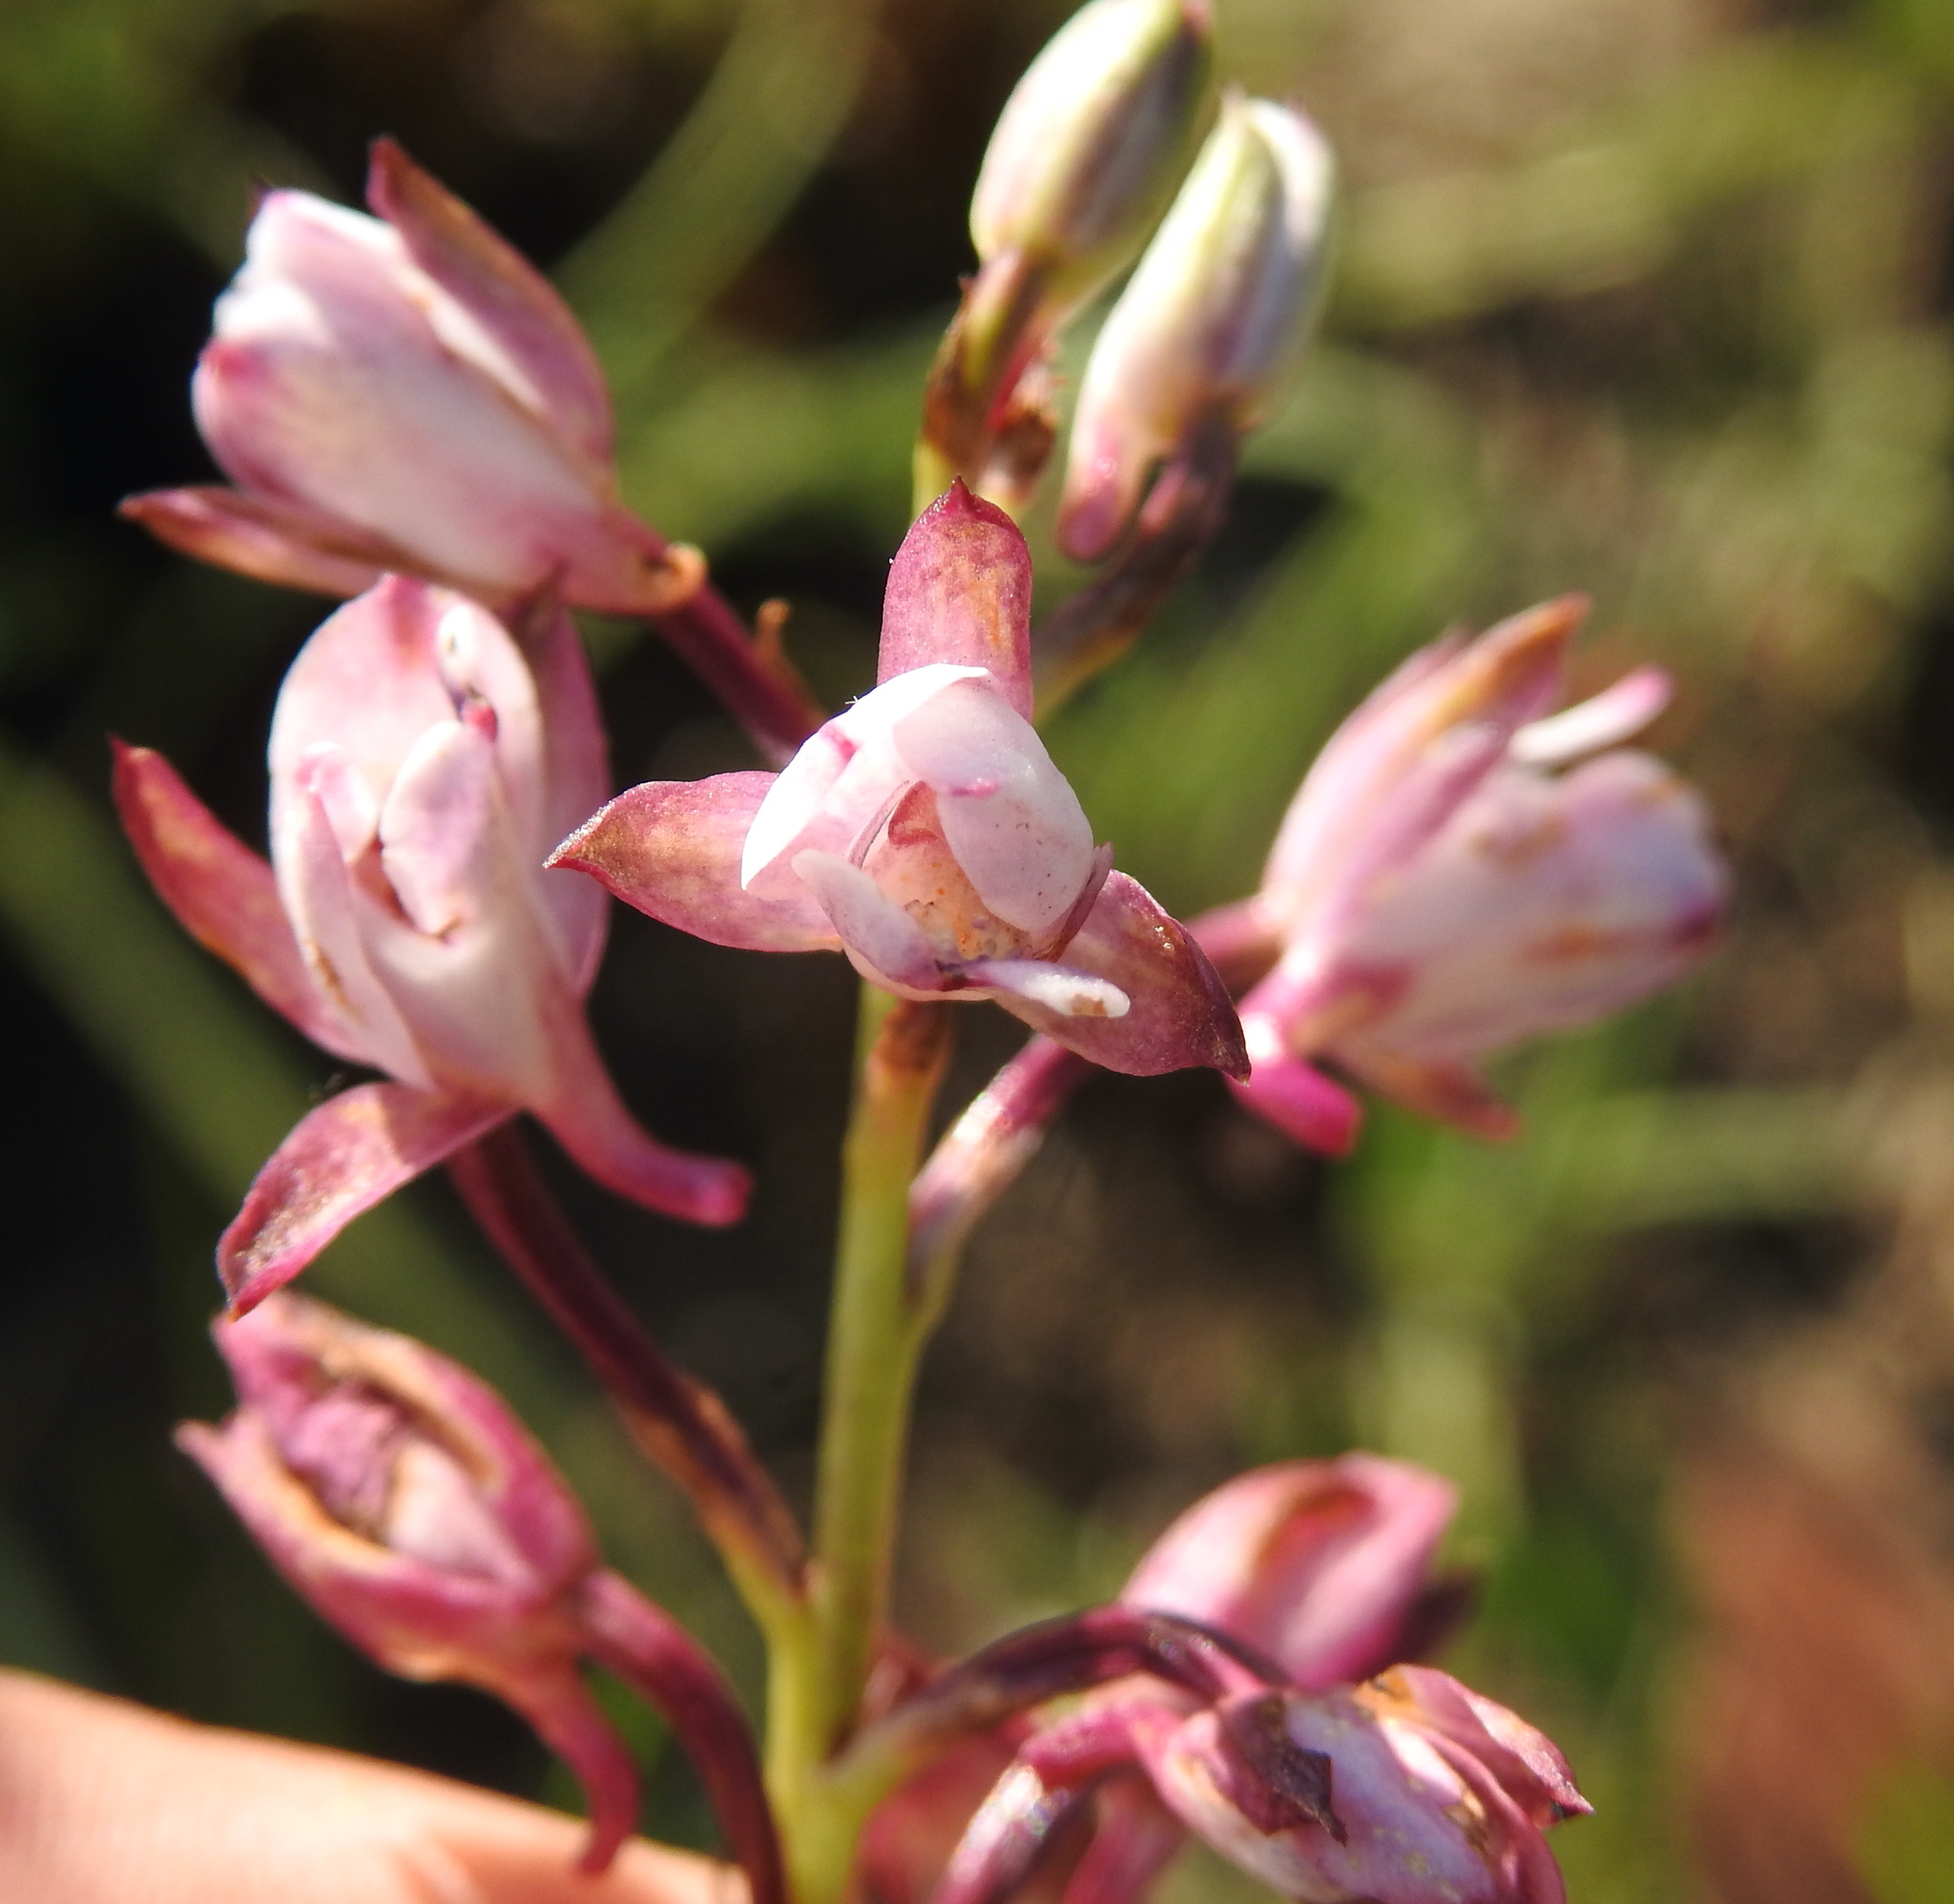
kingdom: Plantae
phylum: Tracheophyta
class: Liliopsida
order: Asparagales
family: Orchidaceae
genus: Eulophia
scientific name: Eulophia hians
